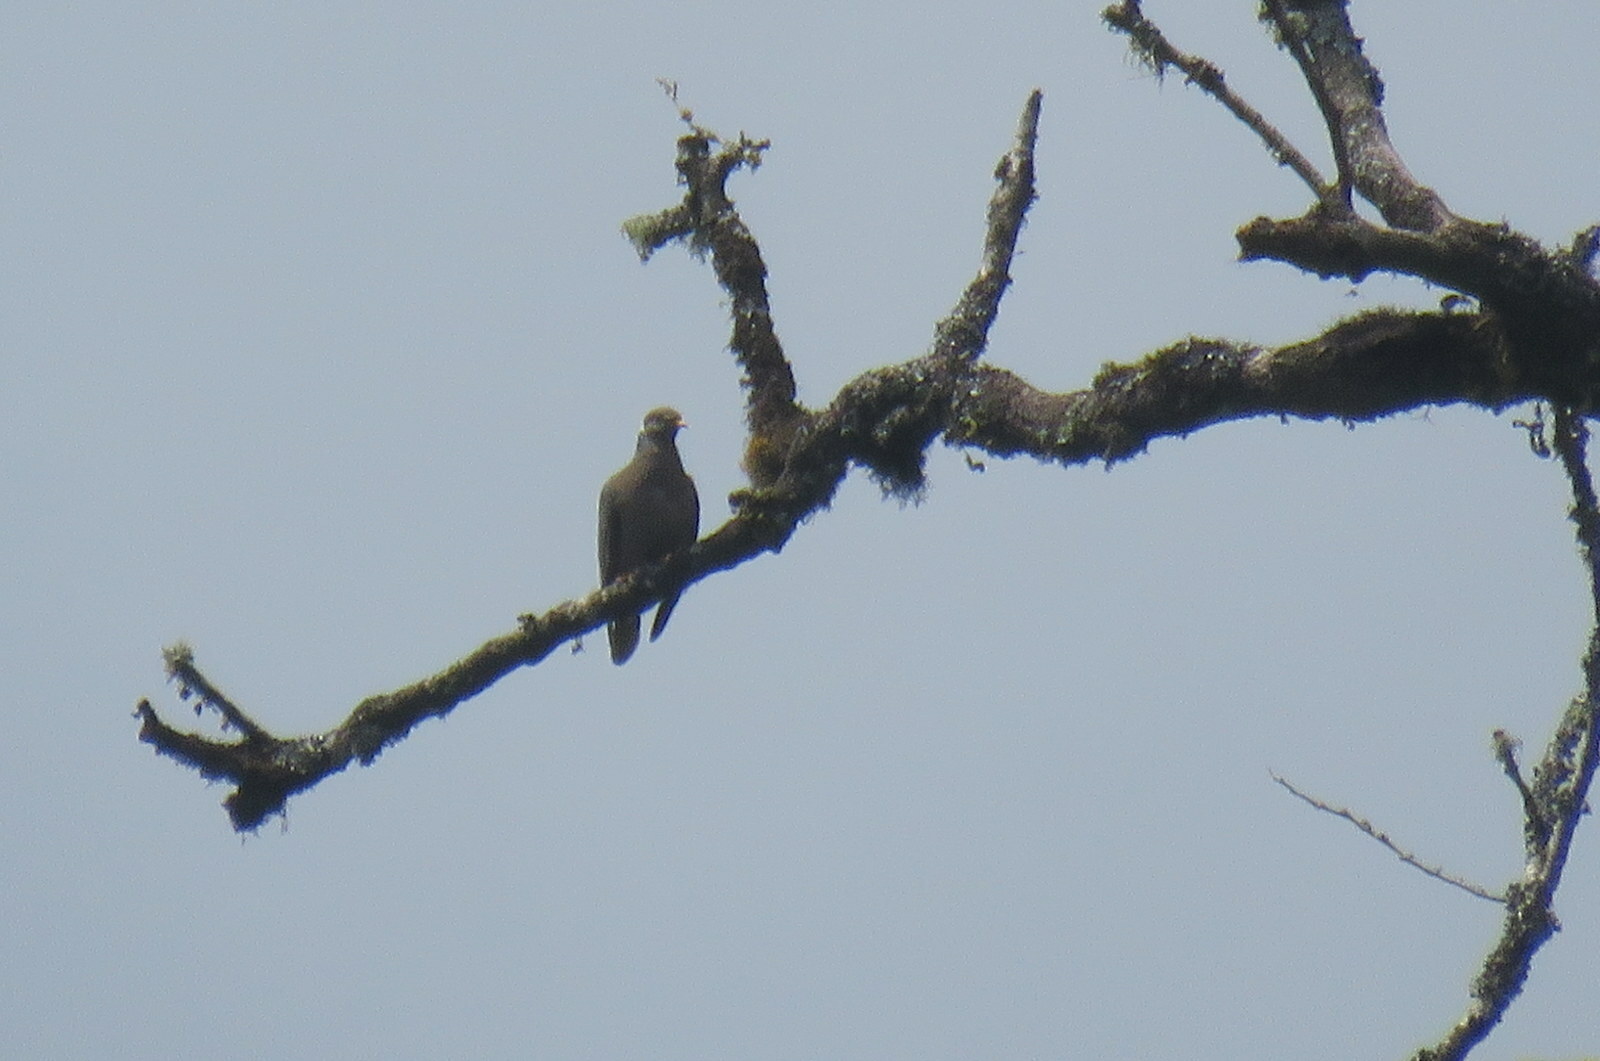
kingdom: Animalia
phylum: Chordata
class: Aves
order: Columbiformes
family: Columbidae
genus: Patagioenas
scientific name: Patagioenas fasciata
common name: Band-tailed pigeon
